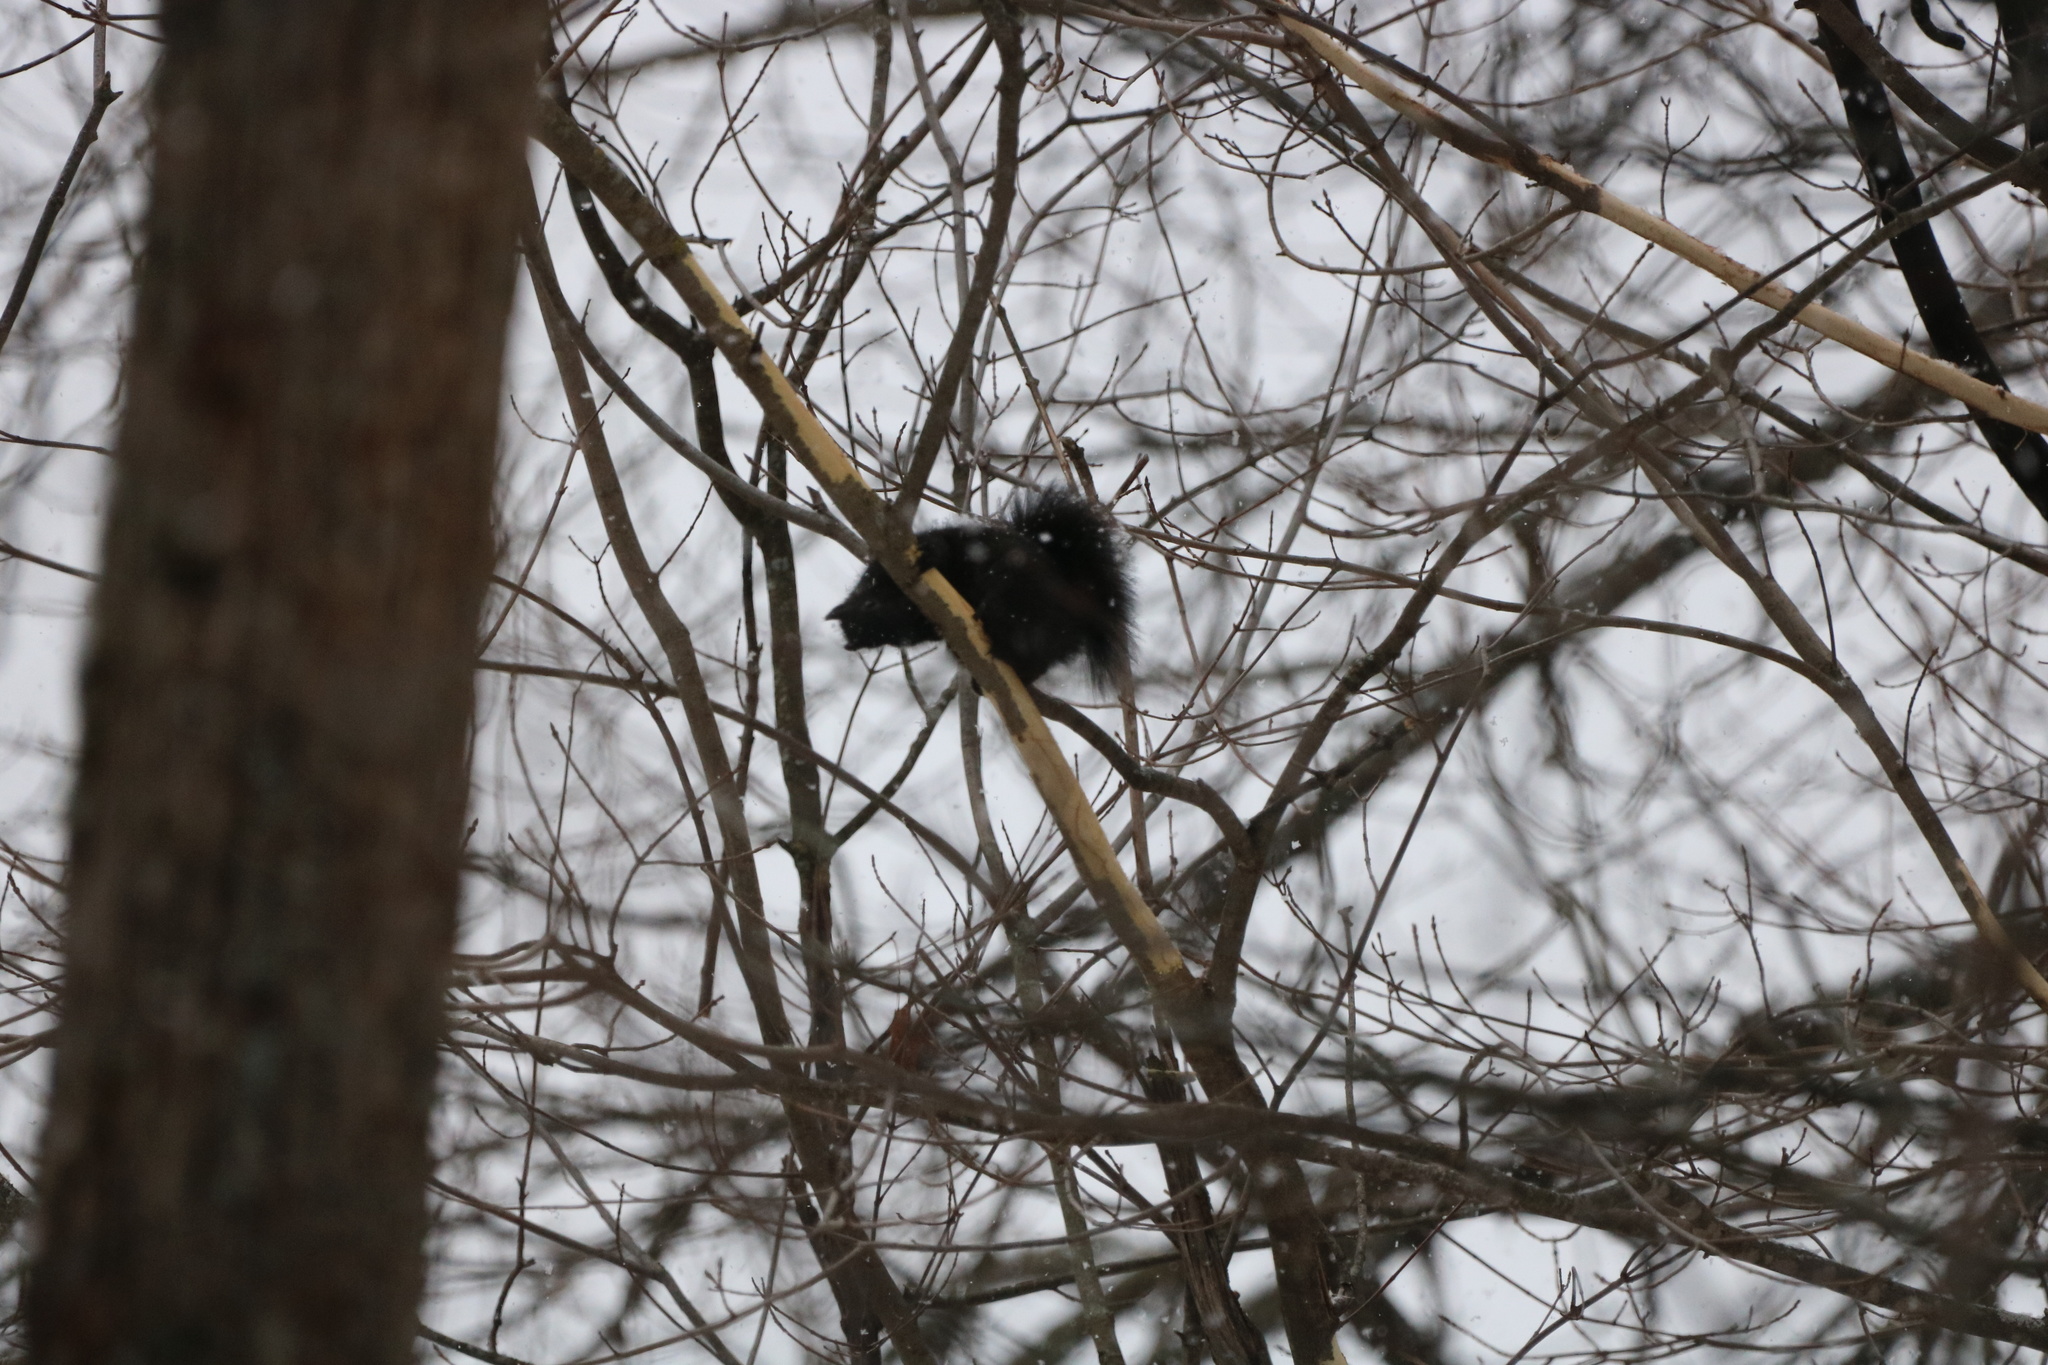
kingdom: Animalia
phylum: Chordata
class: Mammalia
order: Rodentia
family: Sciuridae
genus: Sciurus
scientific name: Sciurus carolinensis
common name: Eastern gray squirrel
